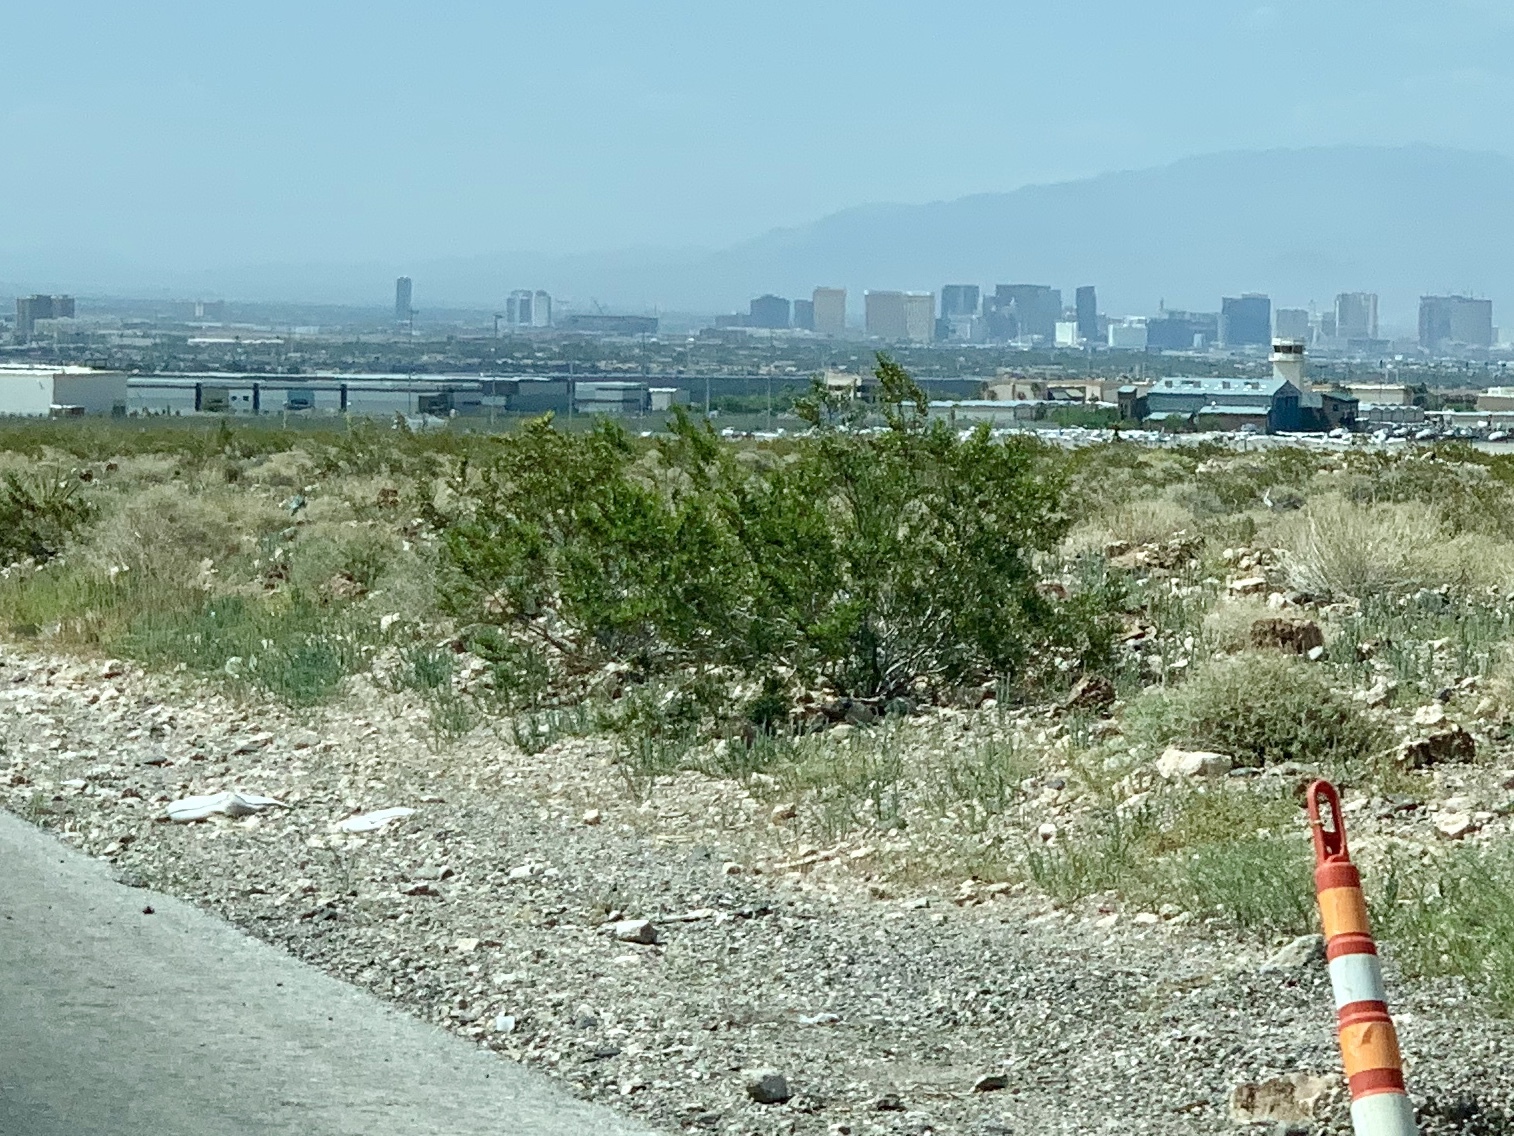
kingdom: Plantae
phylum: Tracheophyta
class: Magnoliopsida
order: Zygophyllales
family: Zygophyllaceae
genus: Larrea
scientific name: Larrea tridentata
